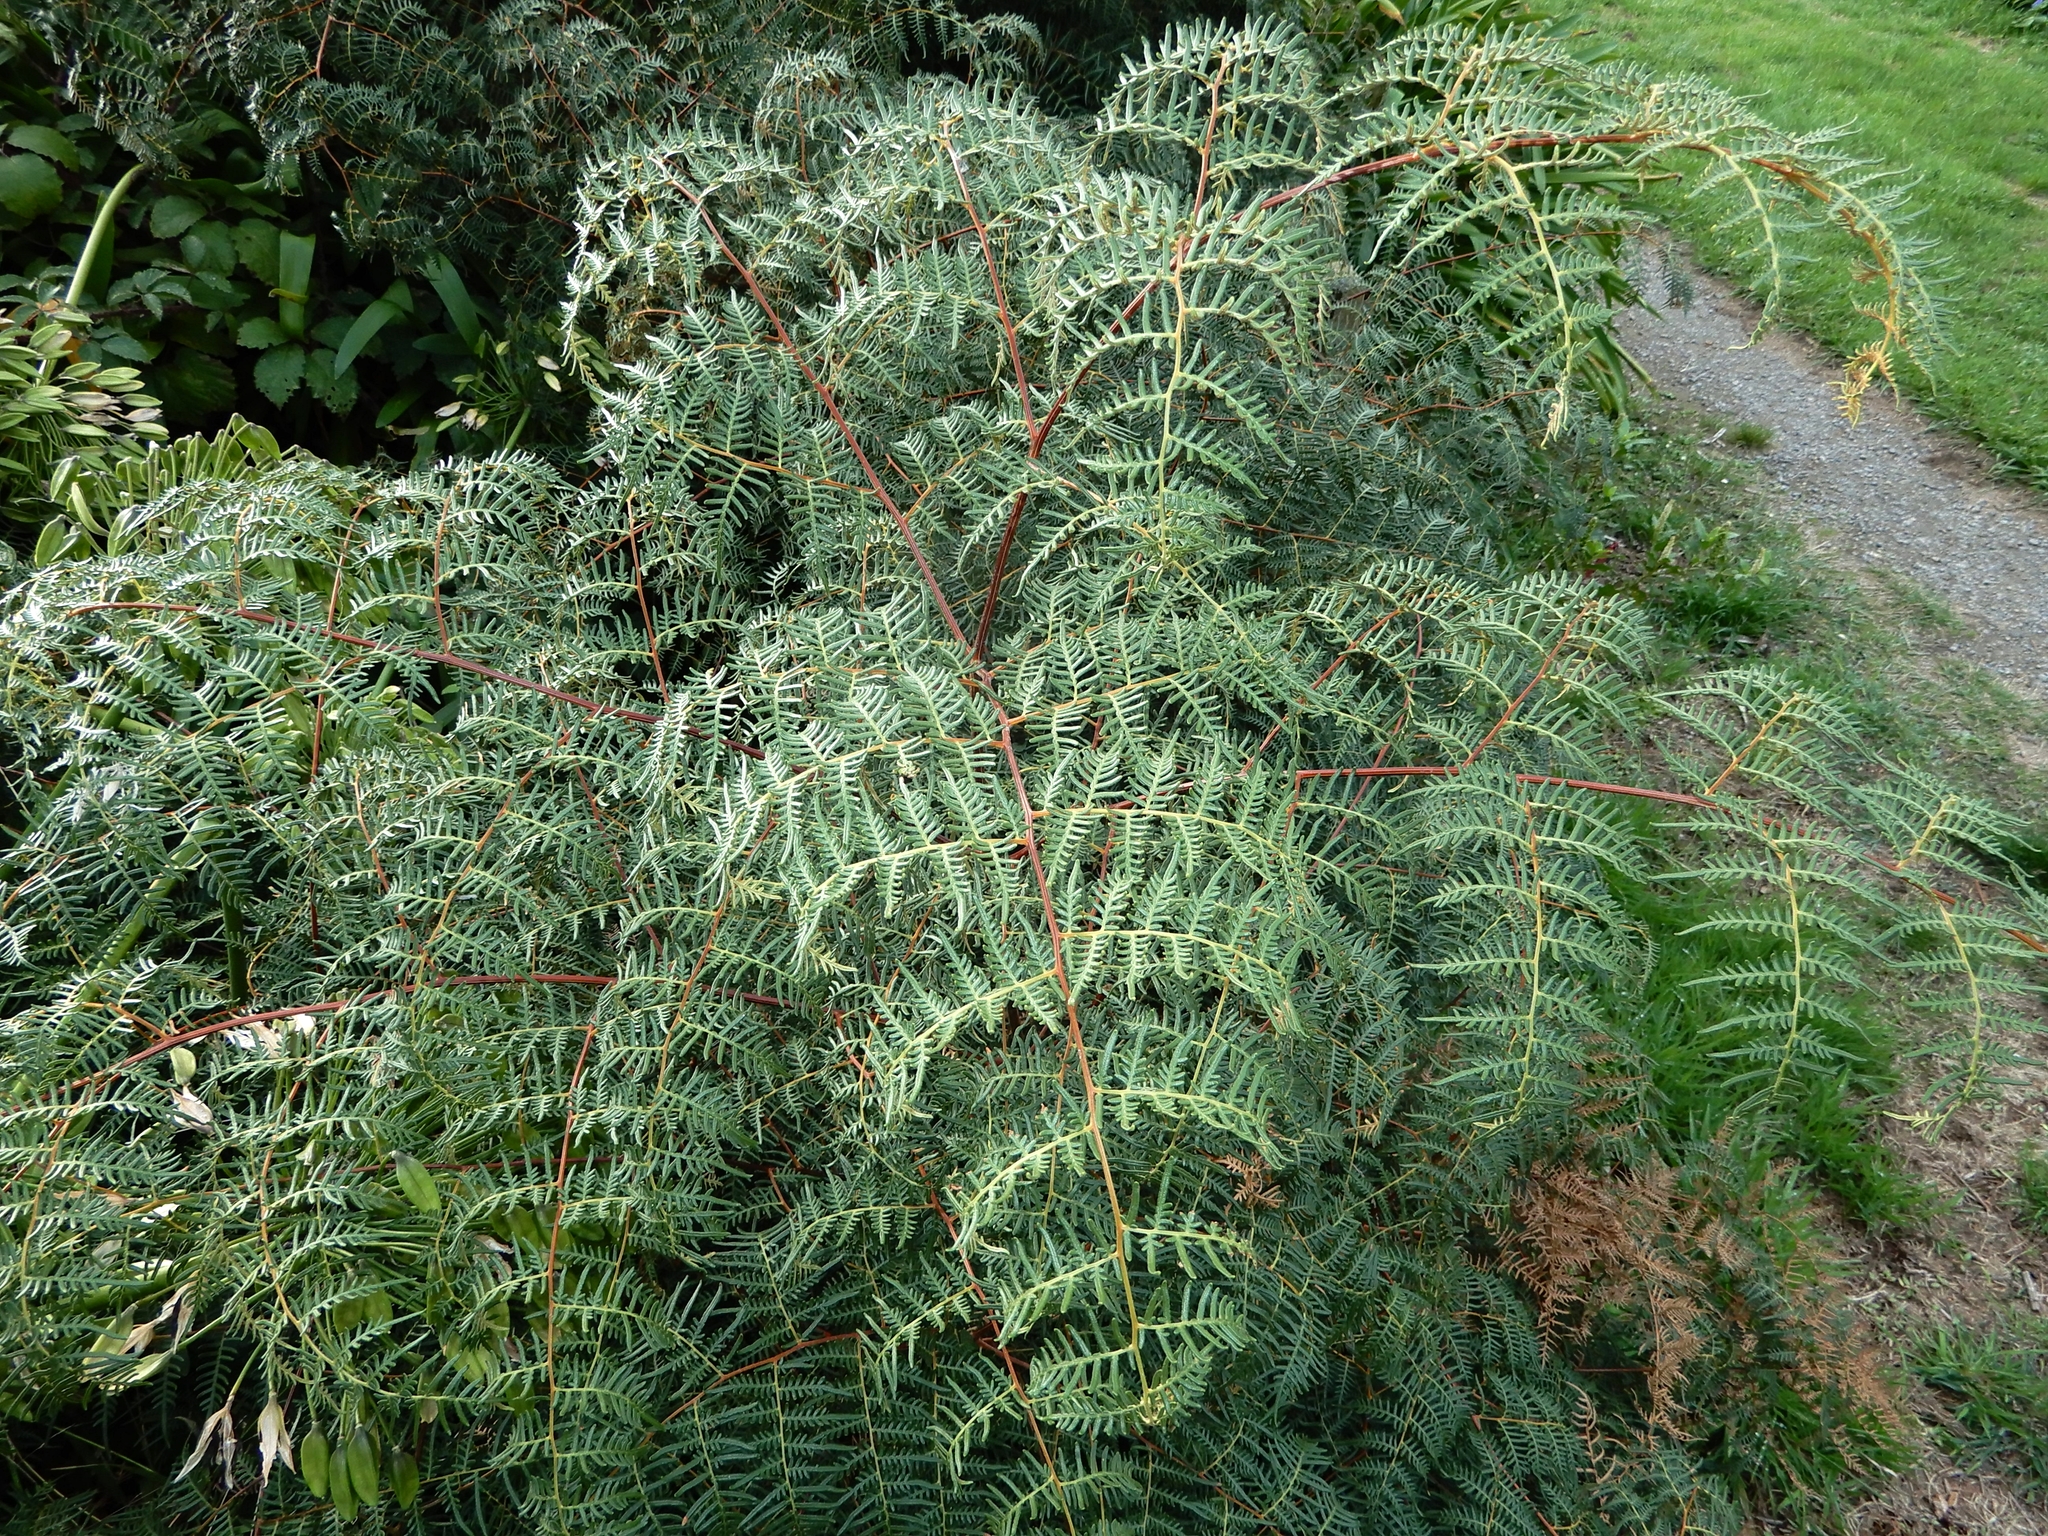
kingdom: Plantae
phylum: Tracheophyta
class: Polypodiopsida
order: Polypodiales
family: Dennstaedtiaceae
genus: Pteridium
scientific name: Pteridium esculentum
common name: Bracken fern
